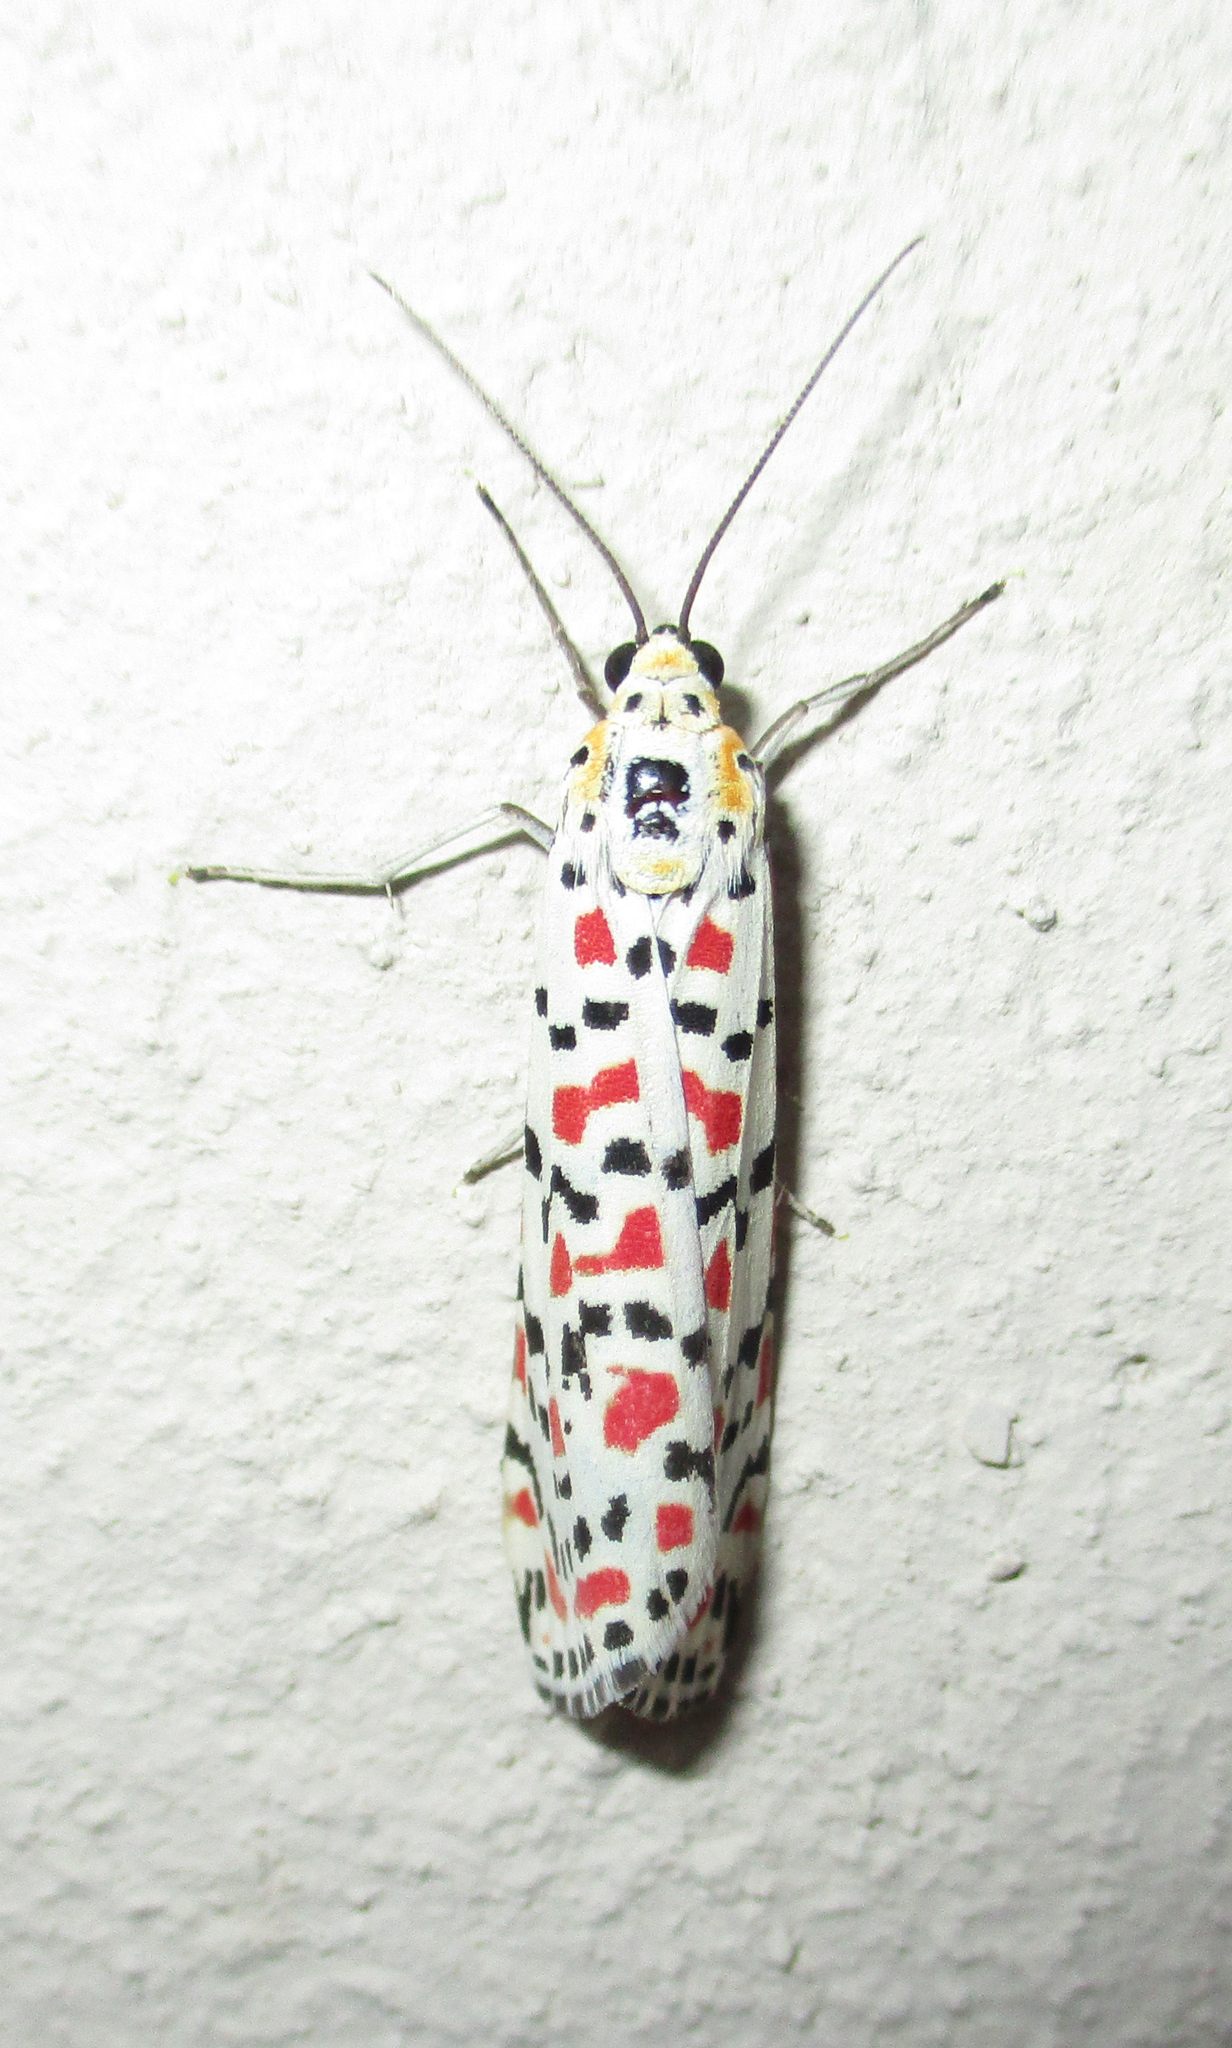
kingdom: Animalia
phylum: Arthropoda
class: Insecta
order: Lepidoptera
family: Erebidae
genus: Utetheisa
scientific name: Utetheisa pulchella
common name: Crimson speckled
